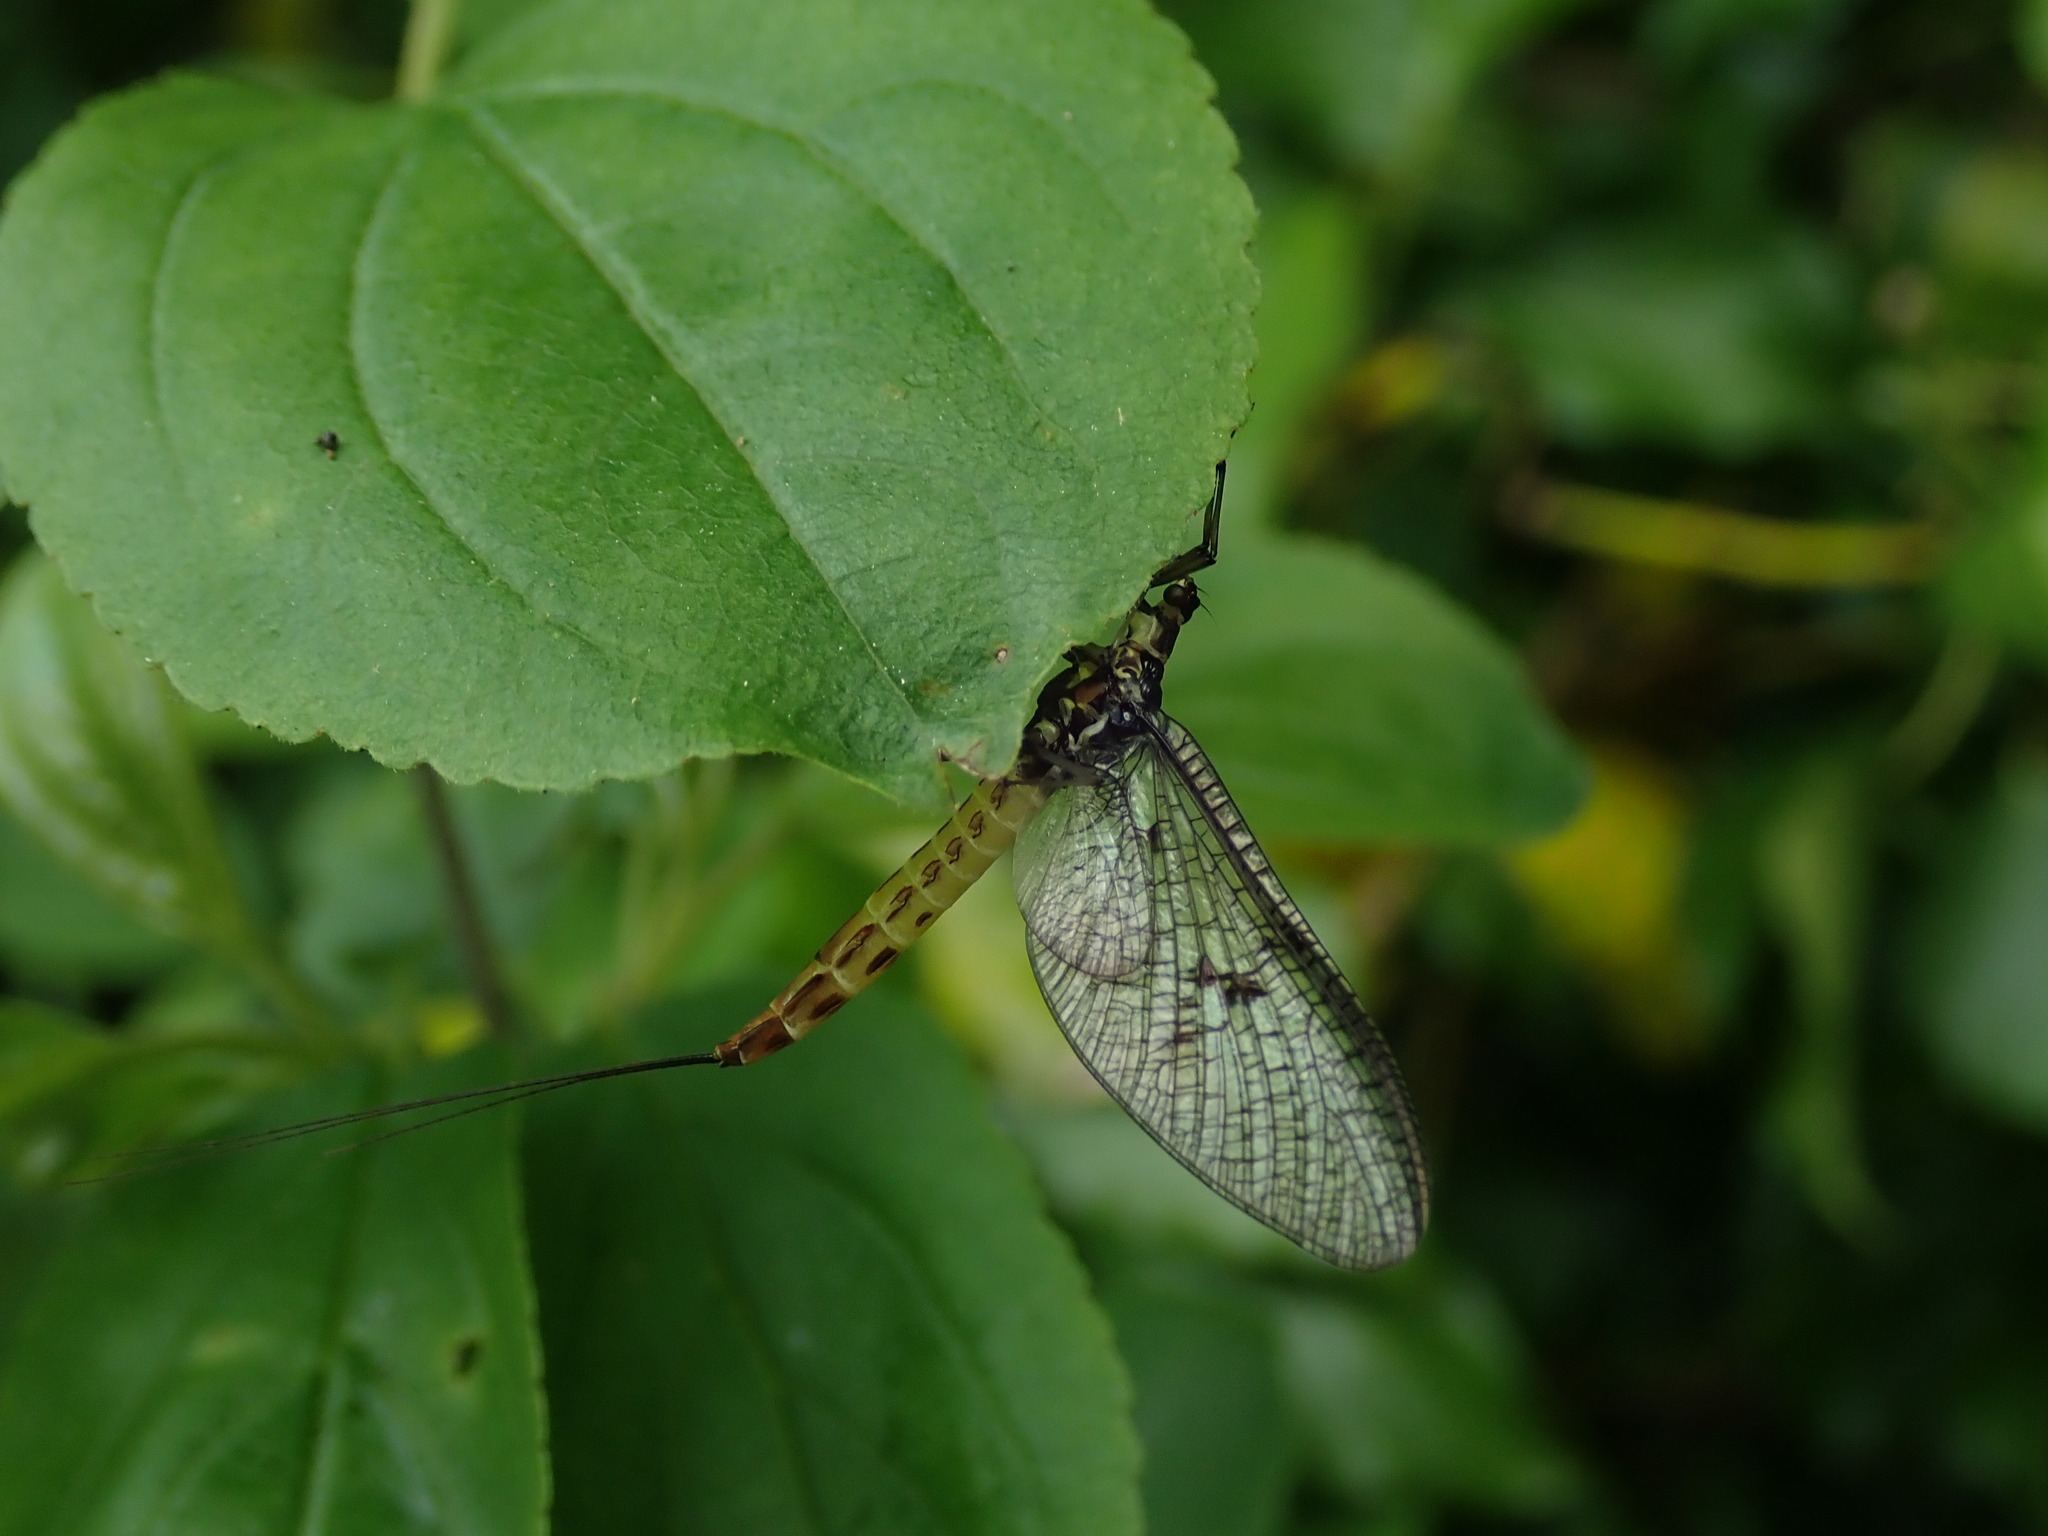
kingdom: Animalia
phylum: Arthropoda
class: Insecta
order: Ephemeroptera
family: Ephemeridae
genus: Ephemera
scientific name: Ephemera danica
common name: Green dun
